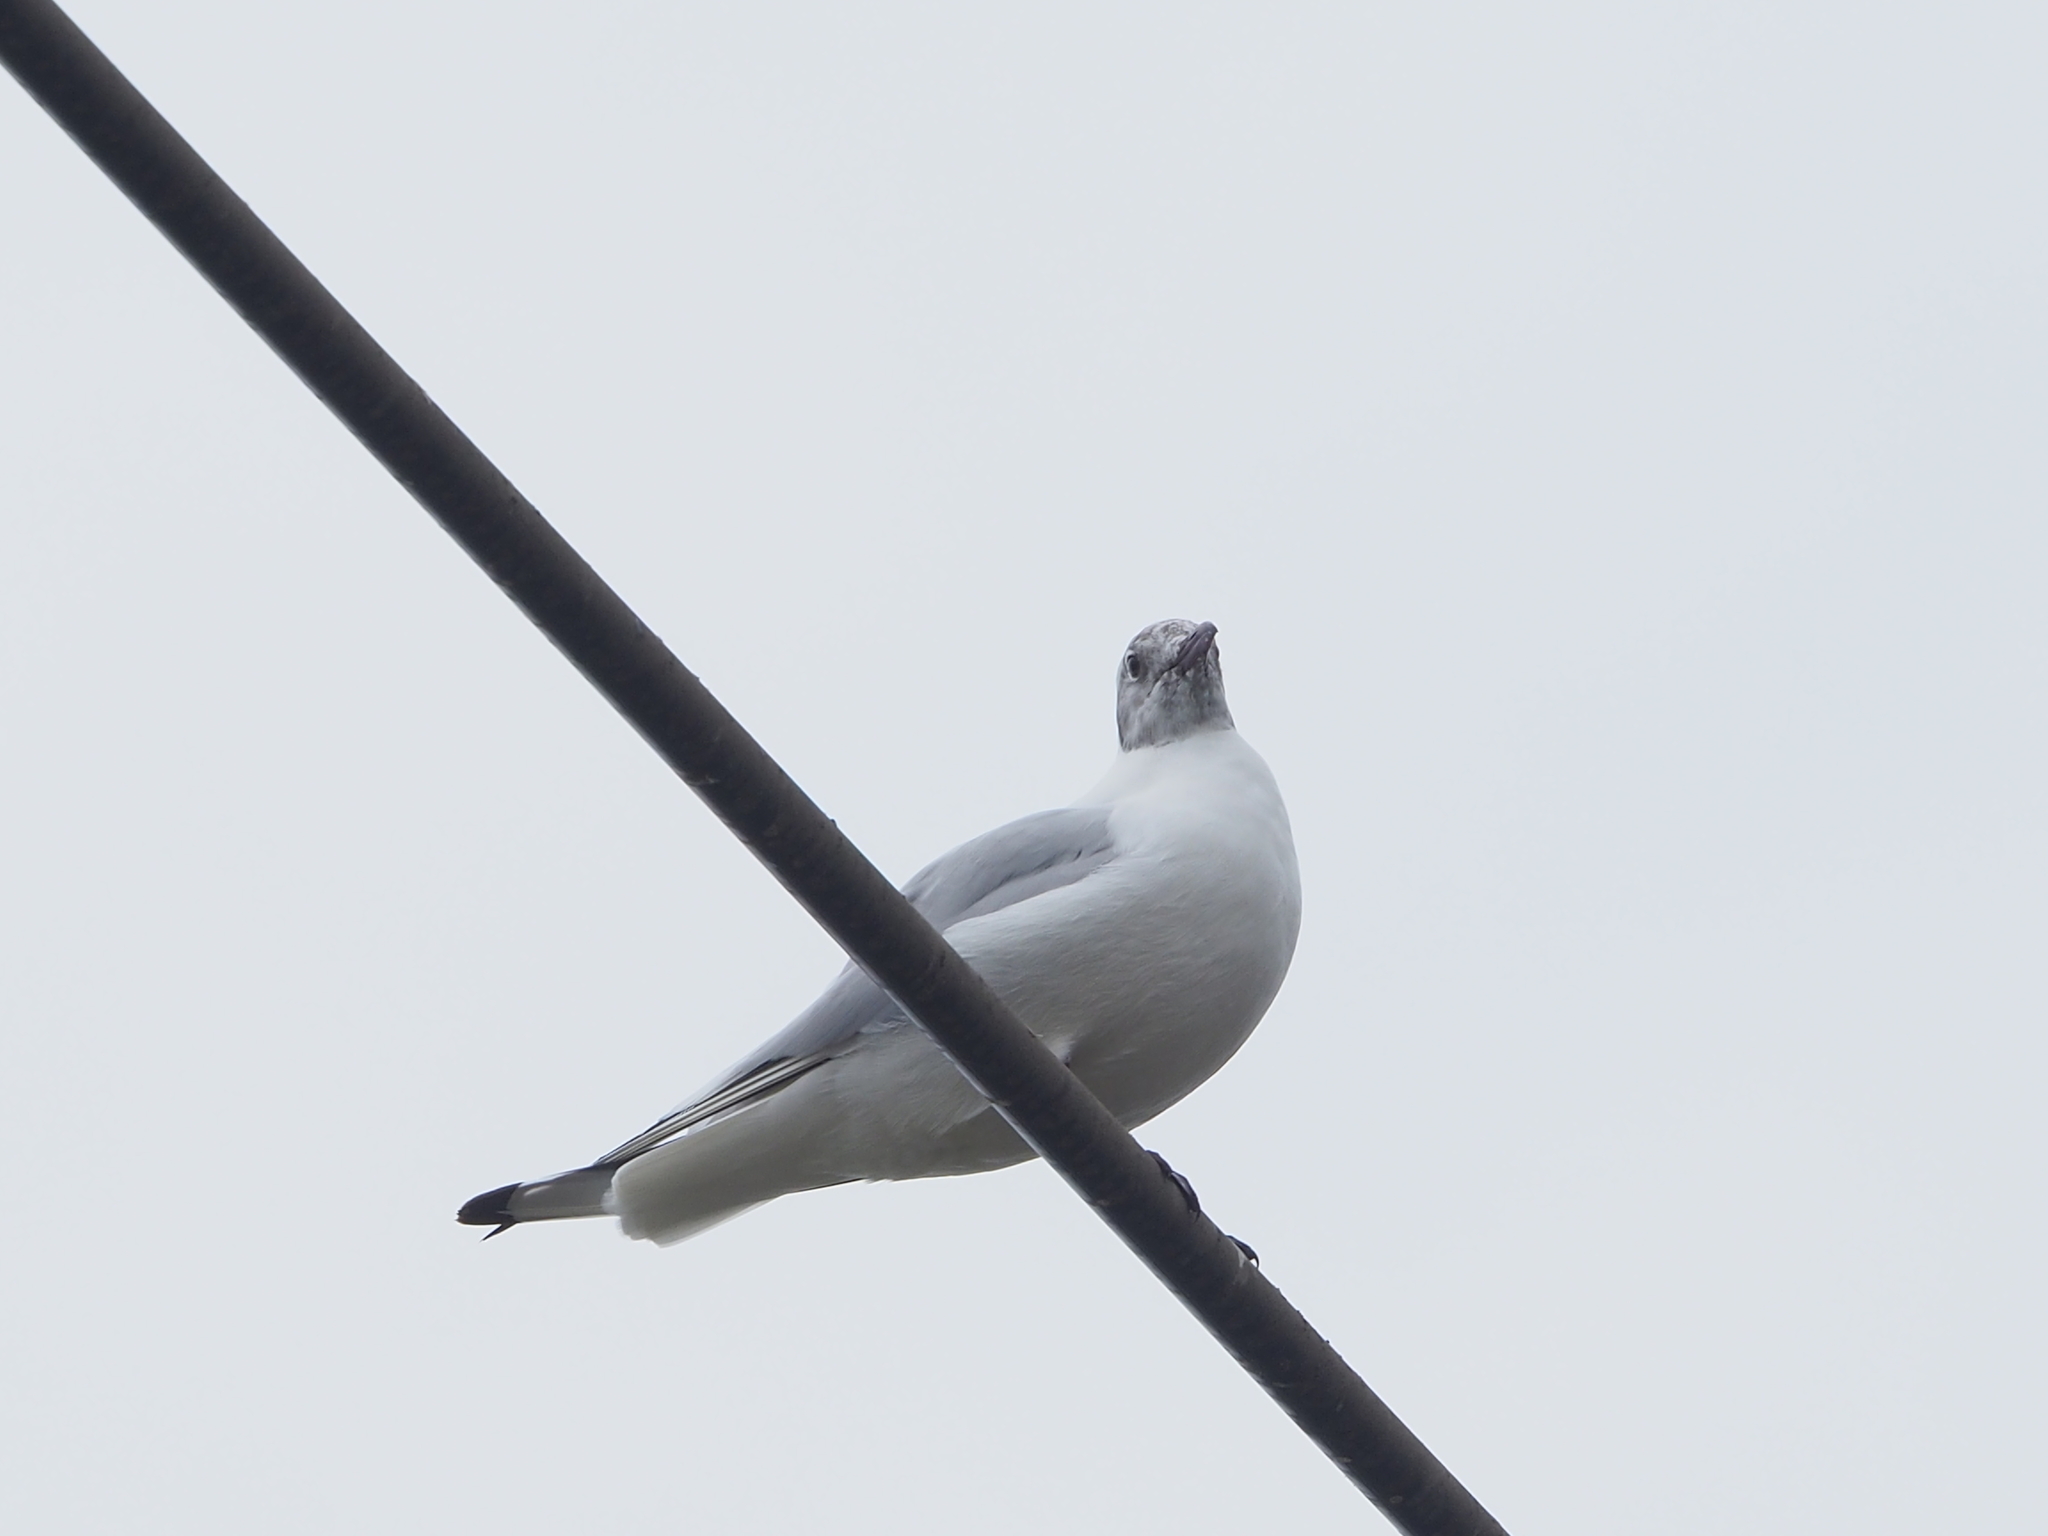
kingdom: Animalia
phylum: Chordata
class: Aves
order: Charadriiformes
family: Laridae
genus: Chroicocephalus
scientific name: Chroicocephalus ridibundus
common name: Black-headed gull
